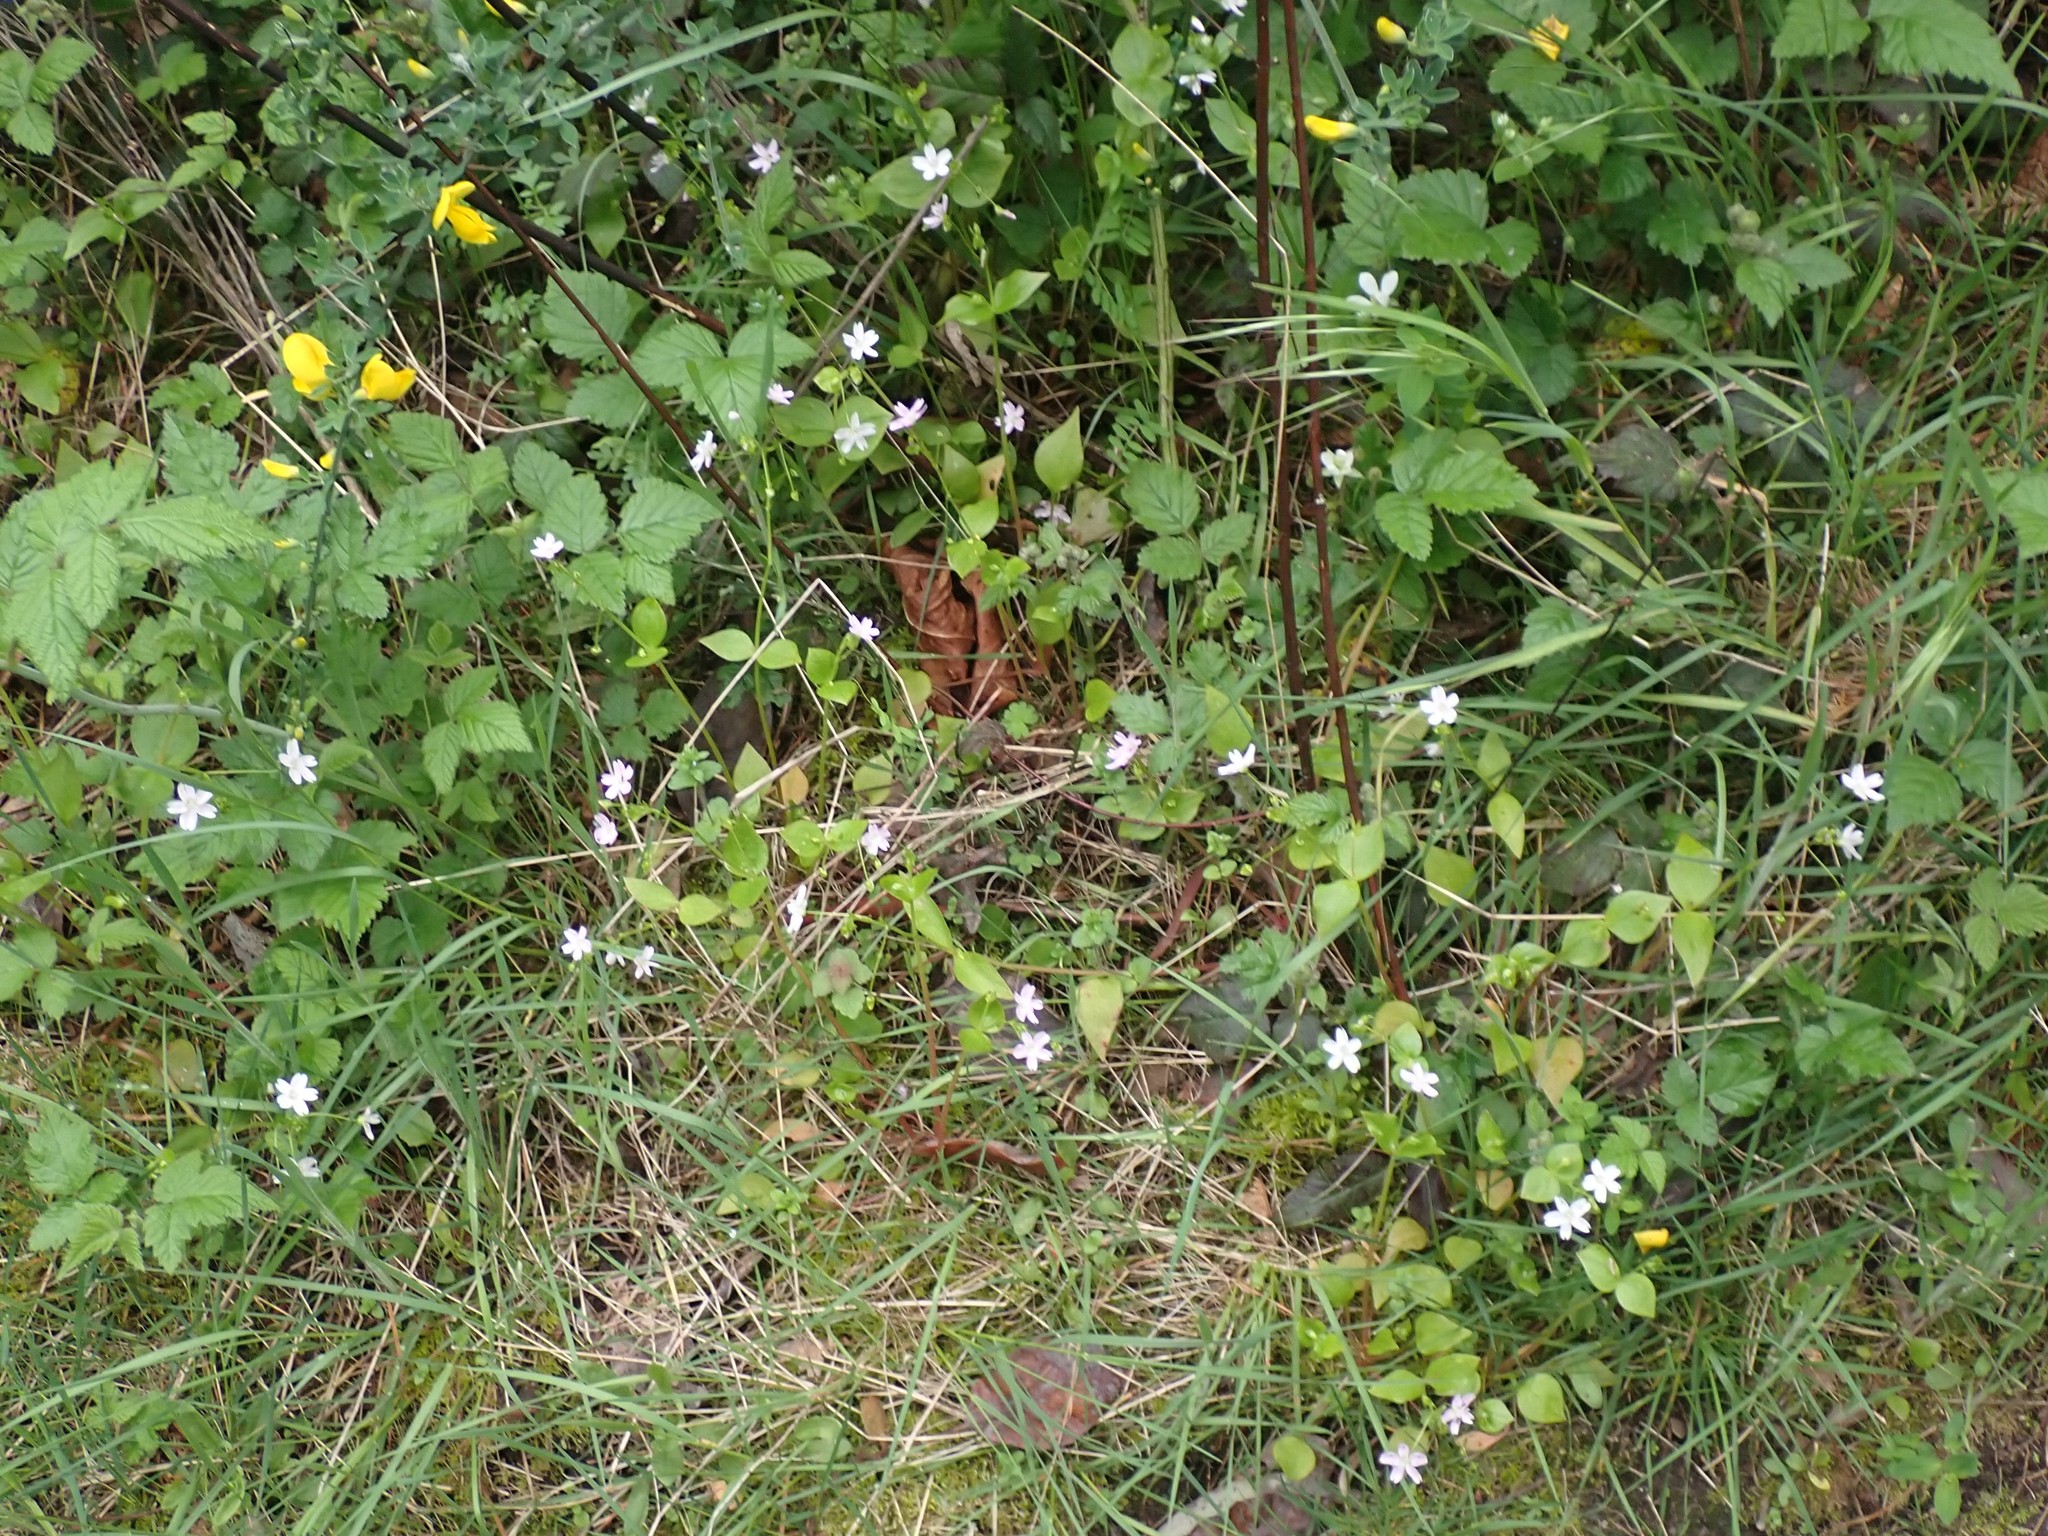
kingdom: Plantae
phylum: Tracheophyta
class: Magnoliopsida
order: Caryophyllales
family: Montiaceae
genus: Claytonia
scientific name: Claytonia sibirica
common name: Pink purslane
